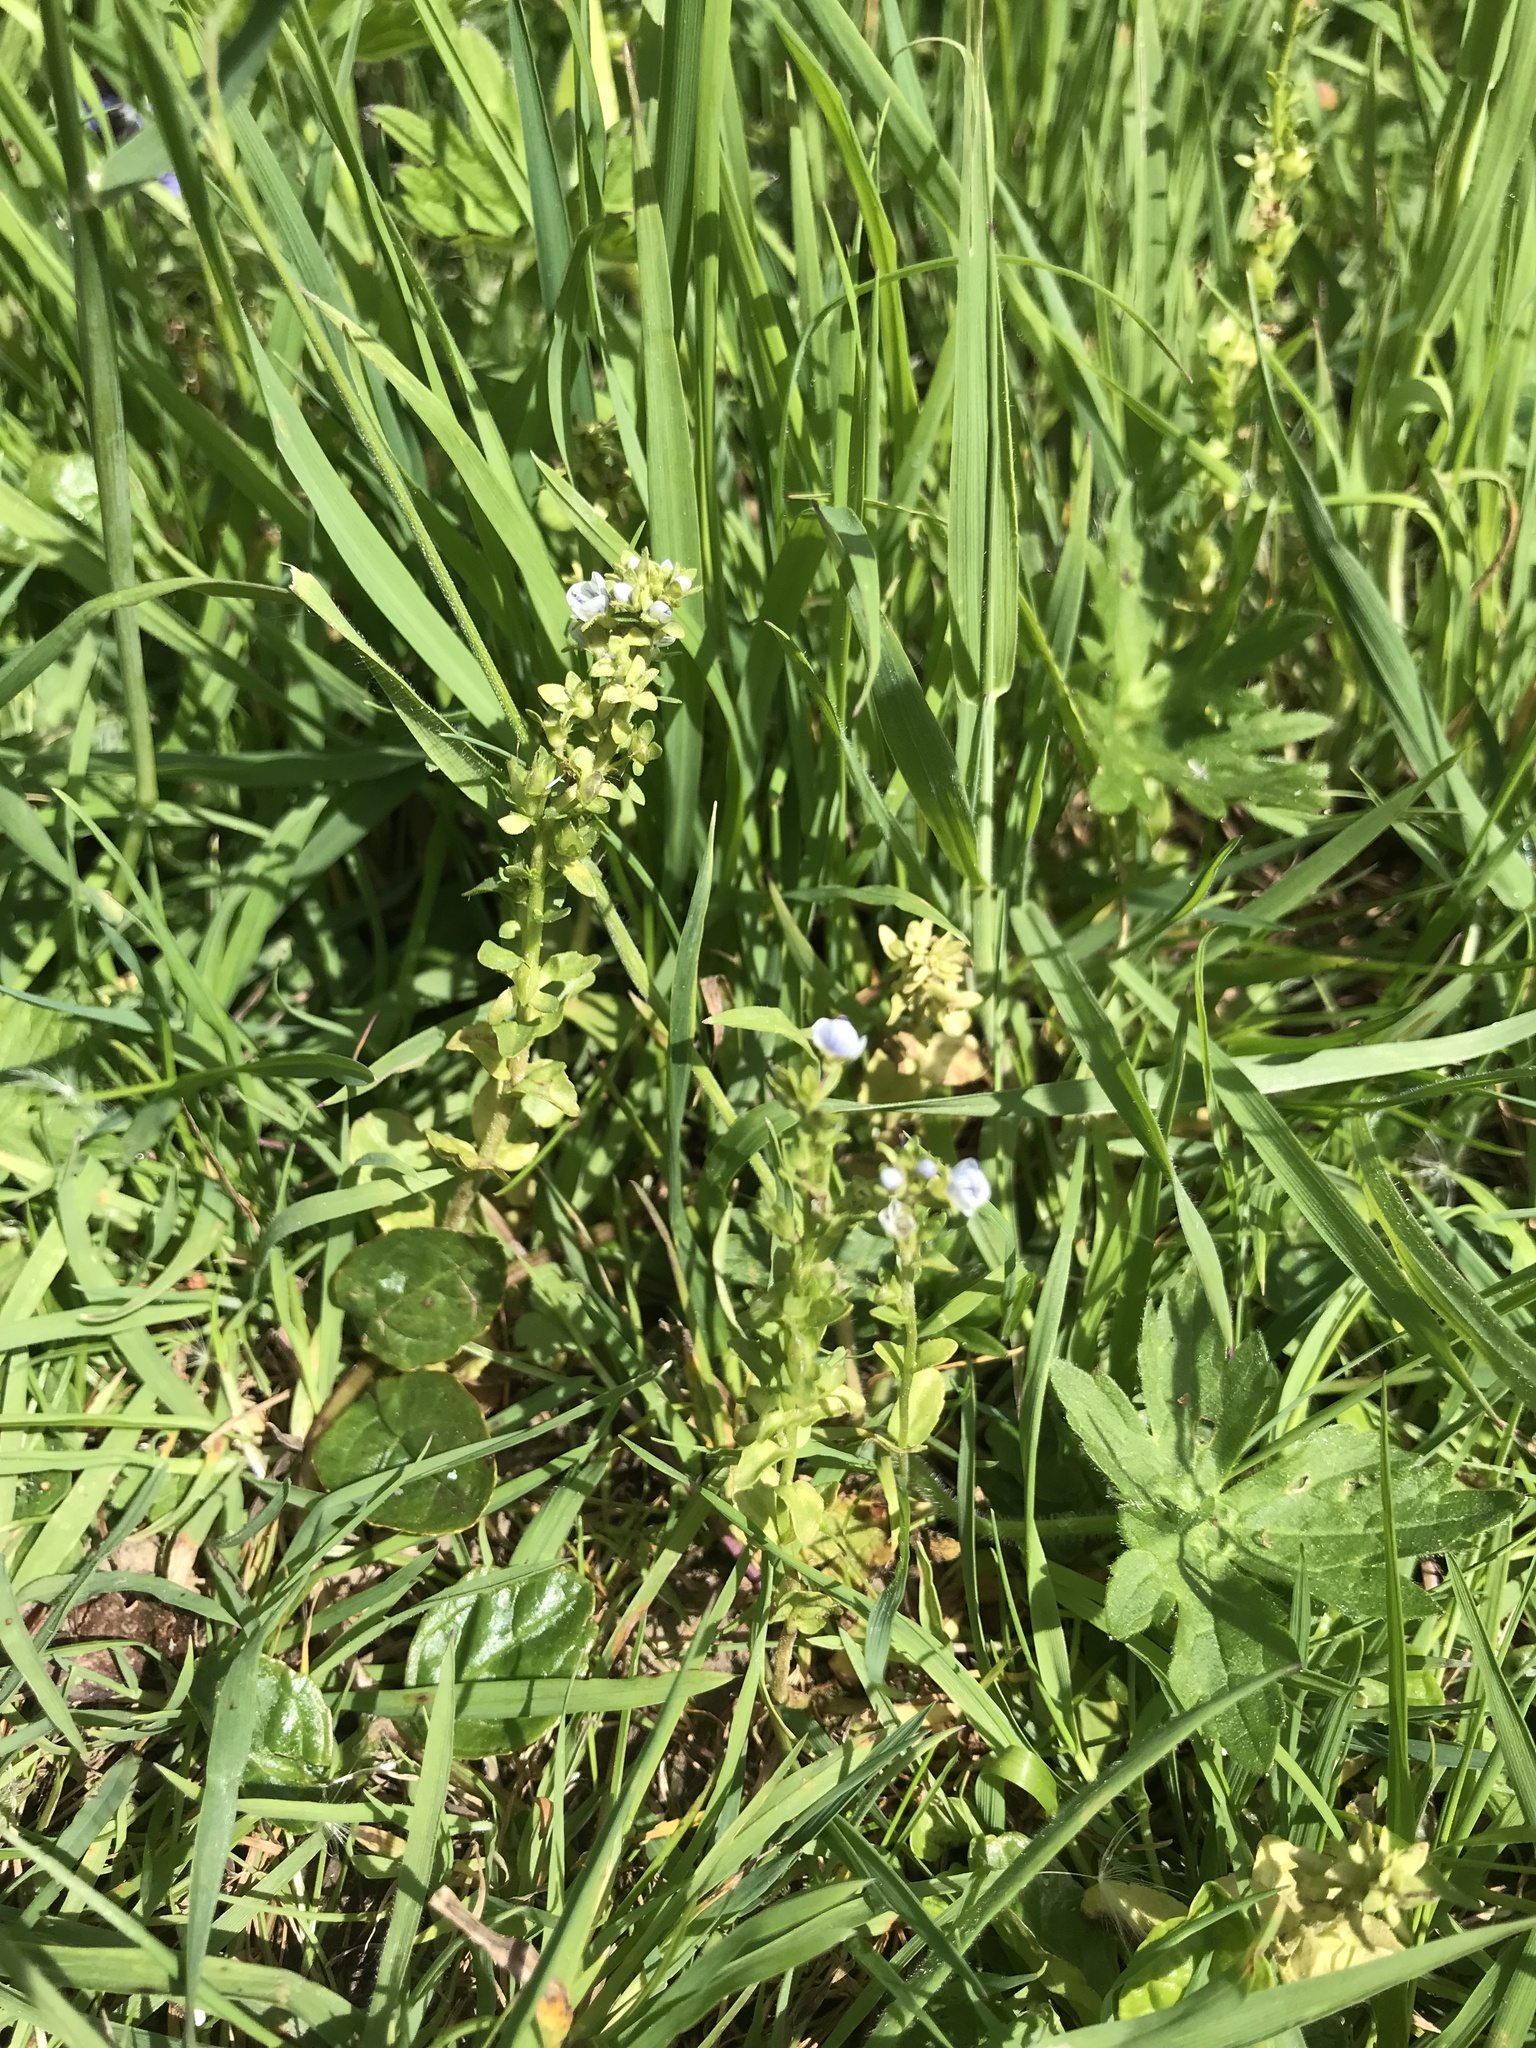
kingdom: Plantae
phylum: Tracheophyta
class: Magnoliopsida
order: Lamiales
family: Plantaginaceae
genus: Veronica
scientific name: Veronica serpyllifolia
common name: Thyme-leaved speedwell
